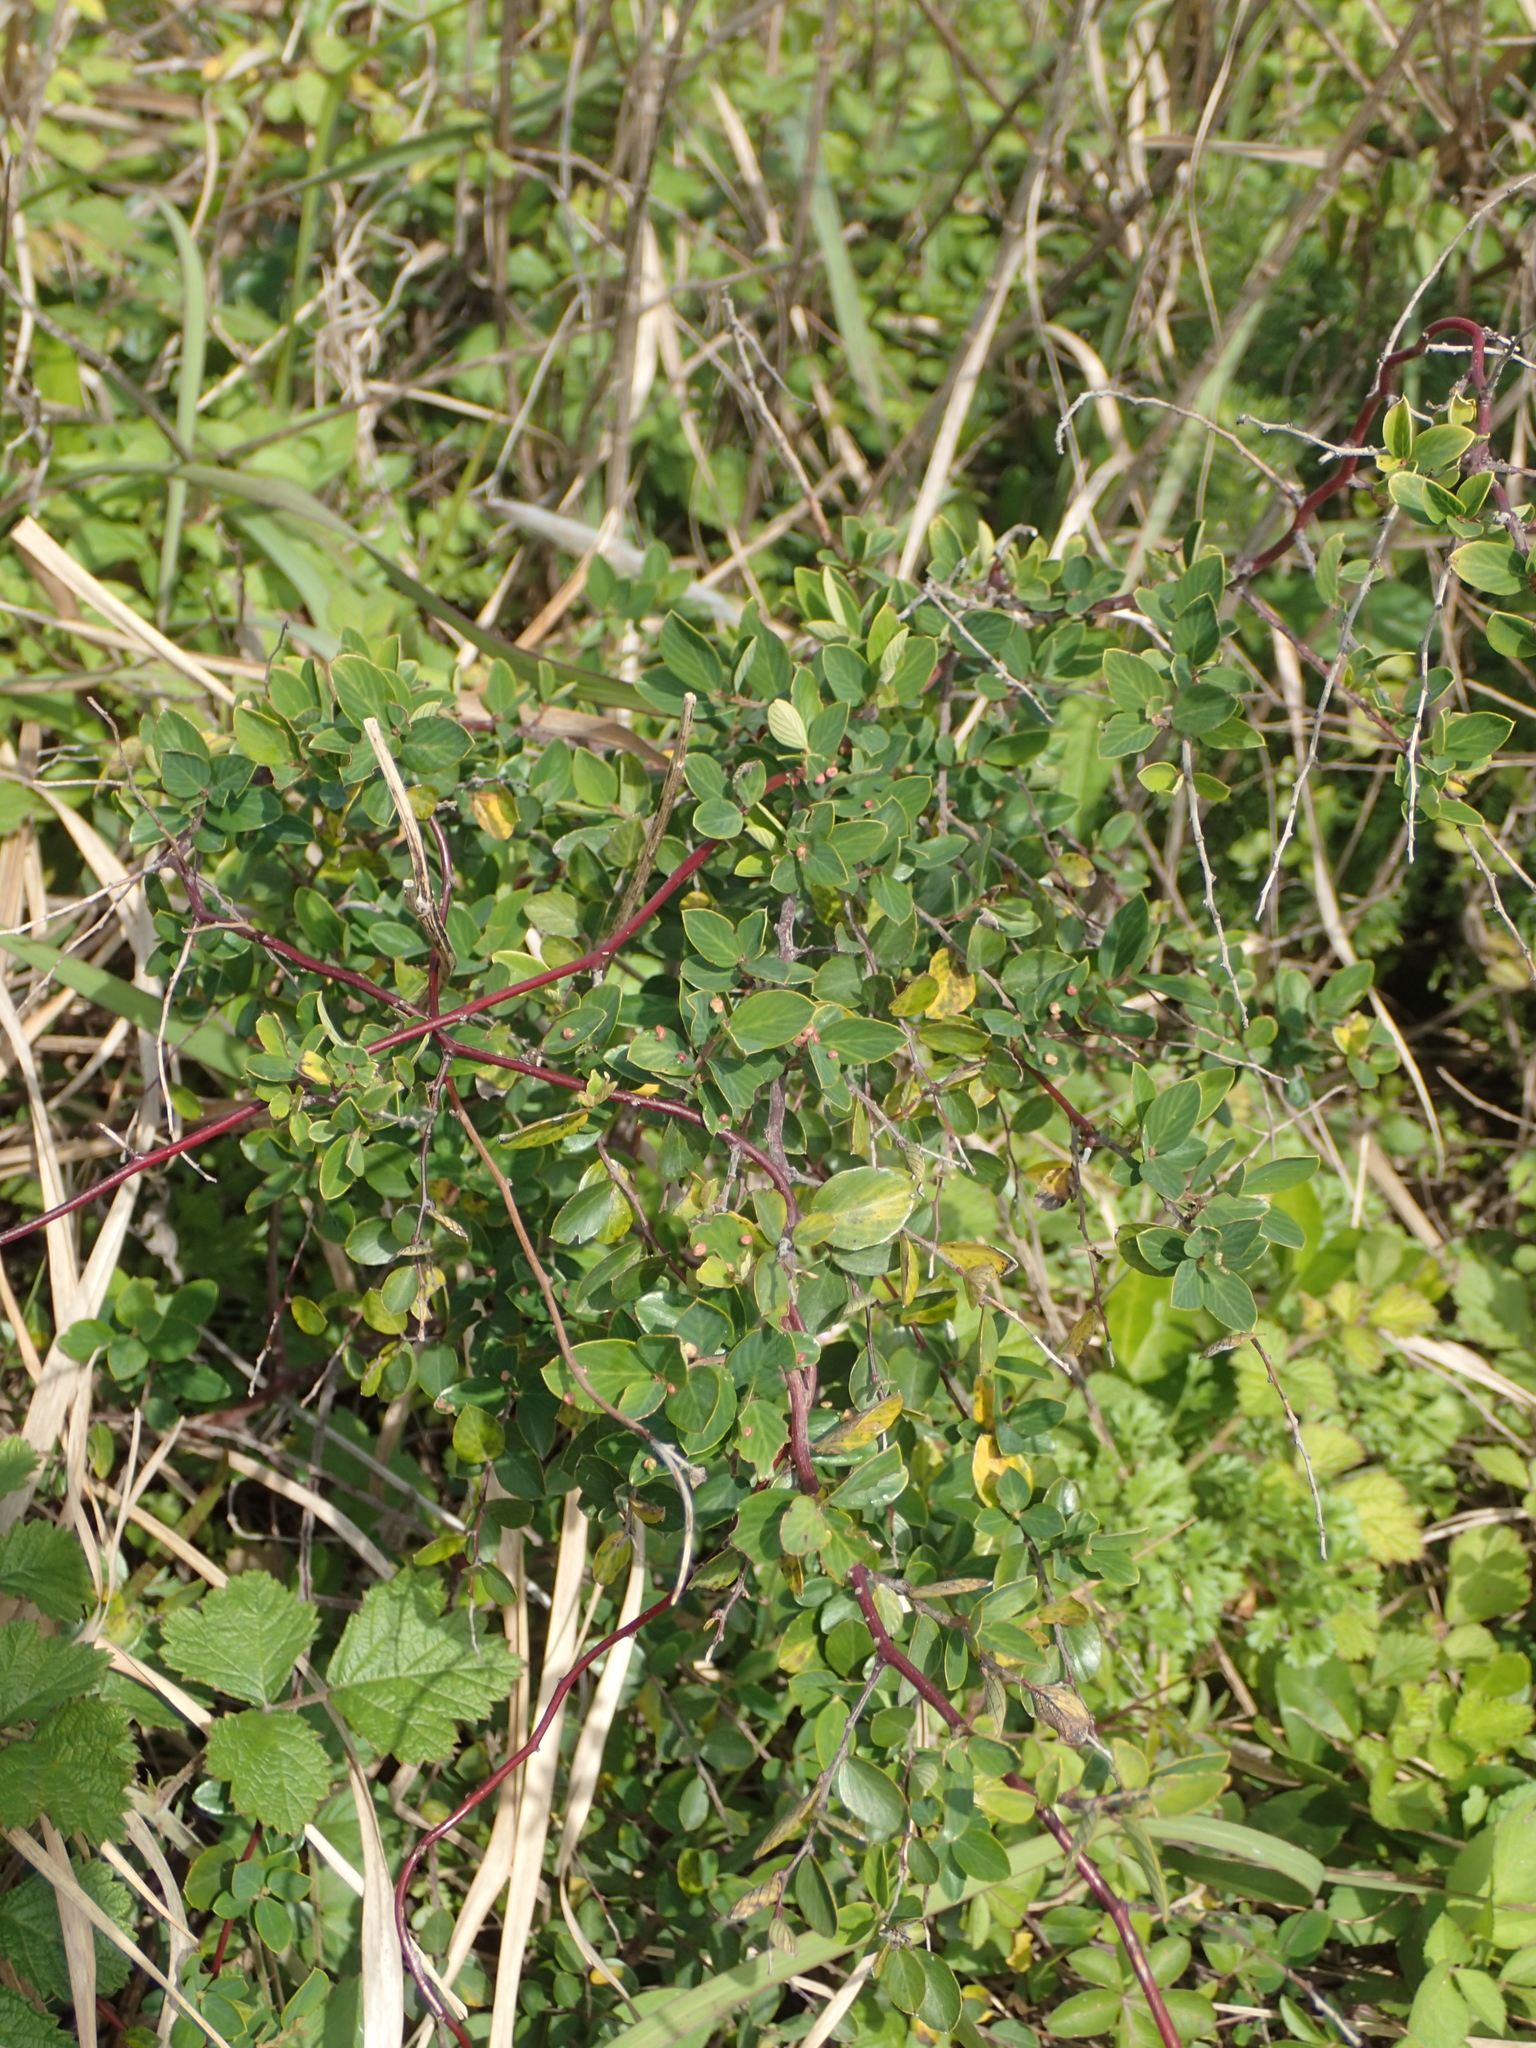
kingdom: Plantae
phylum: Tracheophyta
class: Magnoliopsida
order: Rosales
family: Rhamnaceae
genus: Berchemia
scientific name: Berchemia lineata
